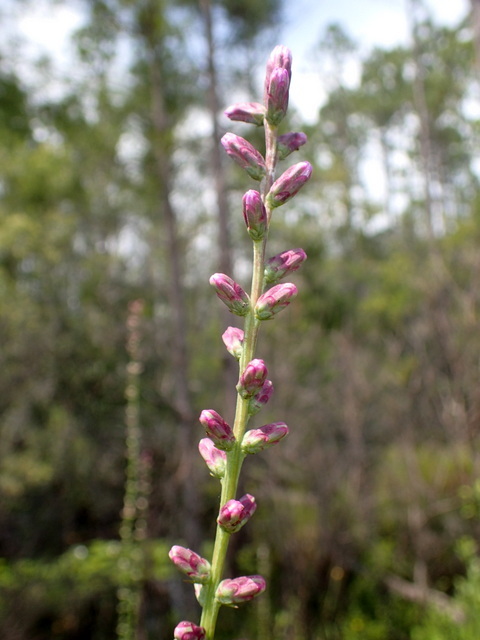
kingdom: Plantae
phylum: Tracheophyta
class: Magnoliopsida
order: Asterales
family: Asteraceae
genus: Liatris
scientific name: Liatris spicata
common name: Florist gayfeather
